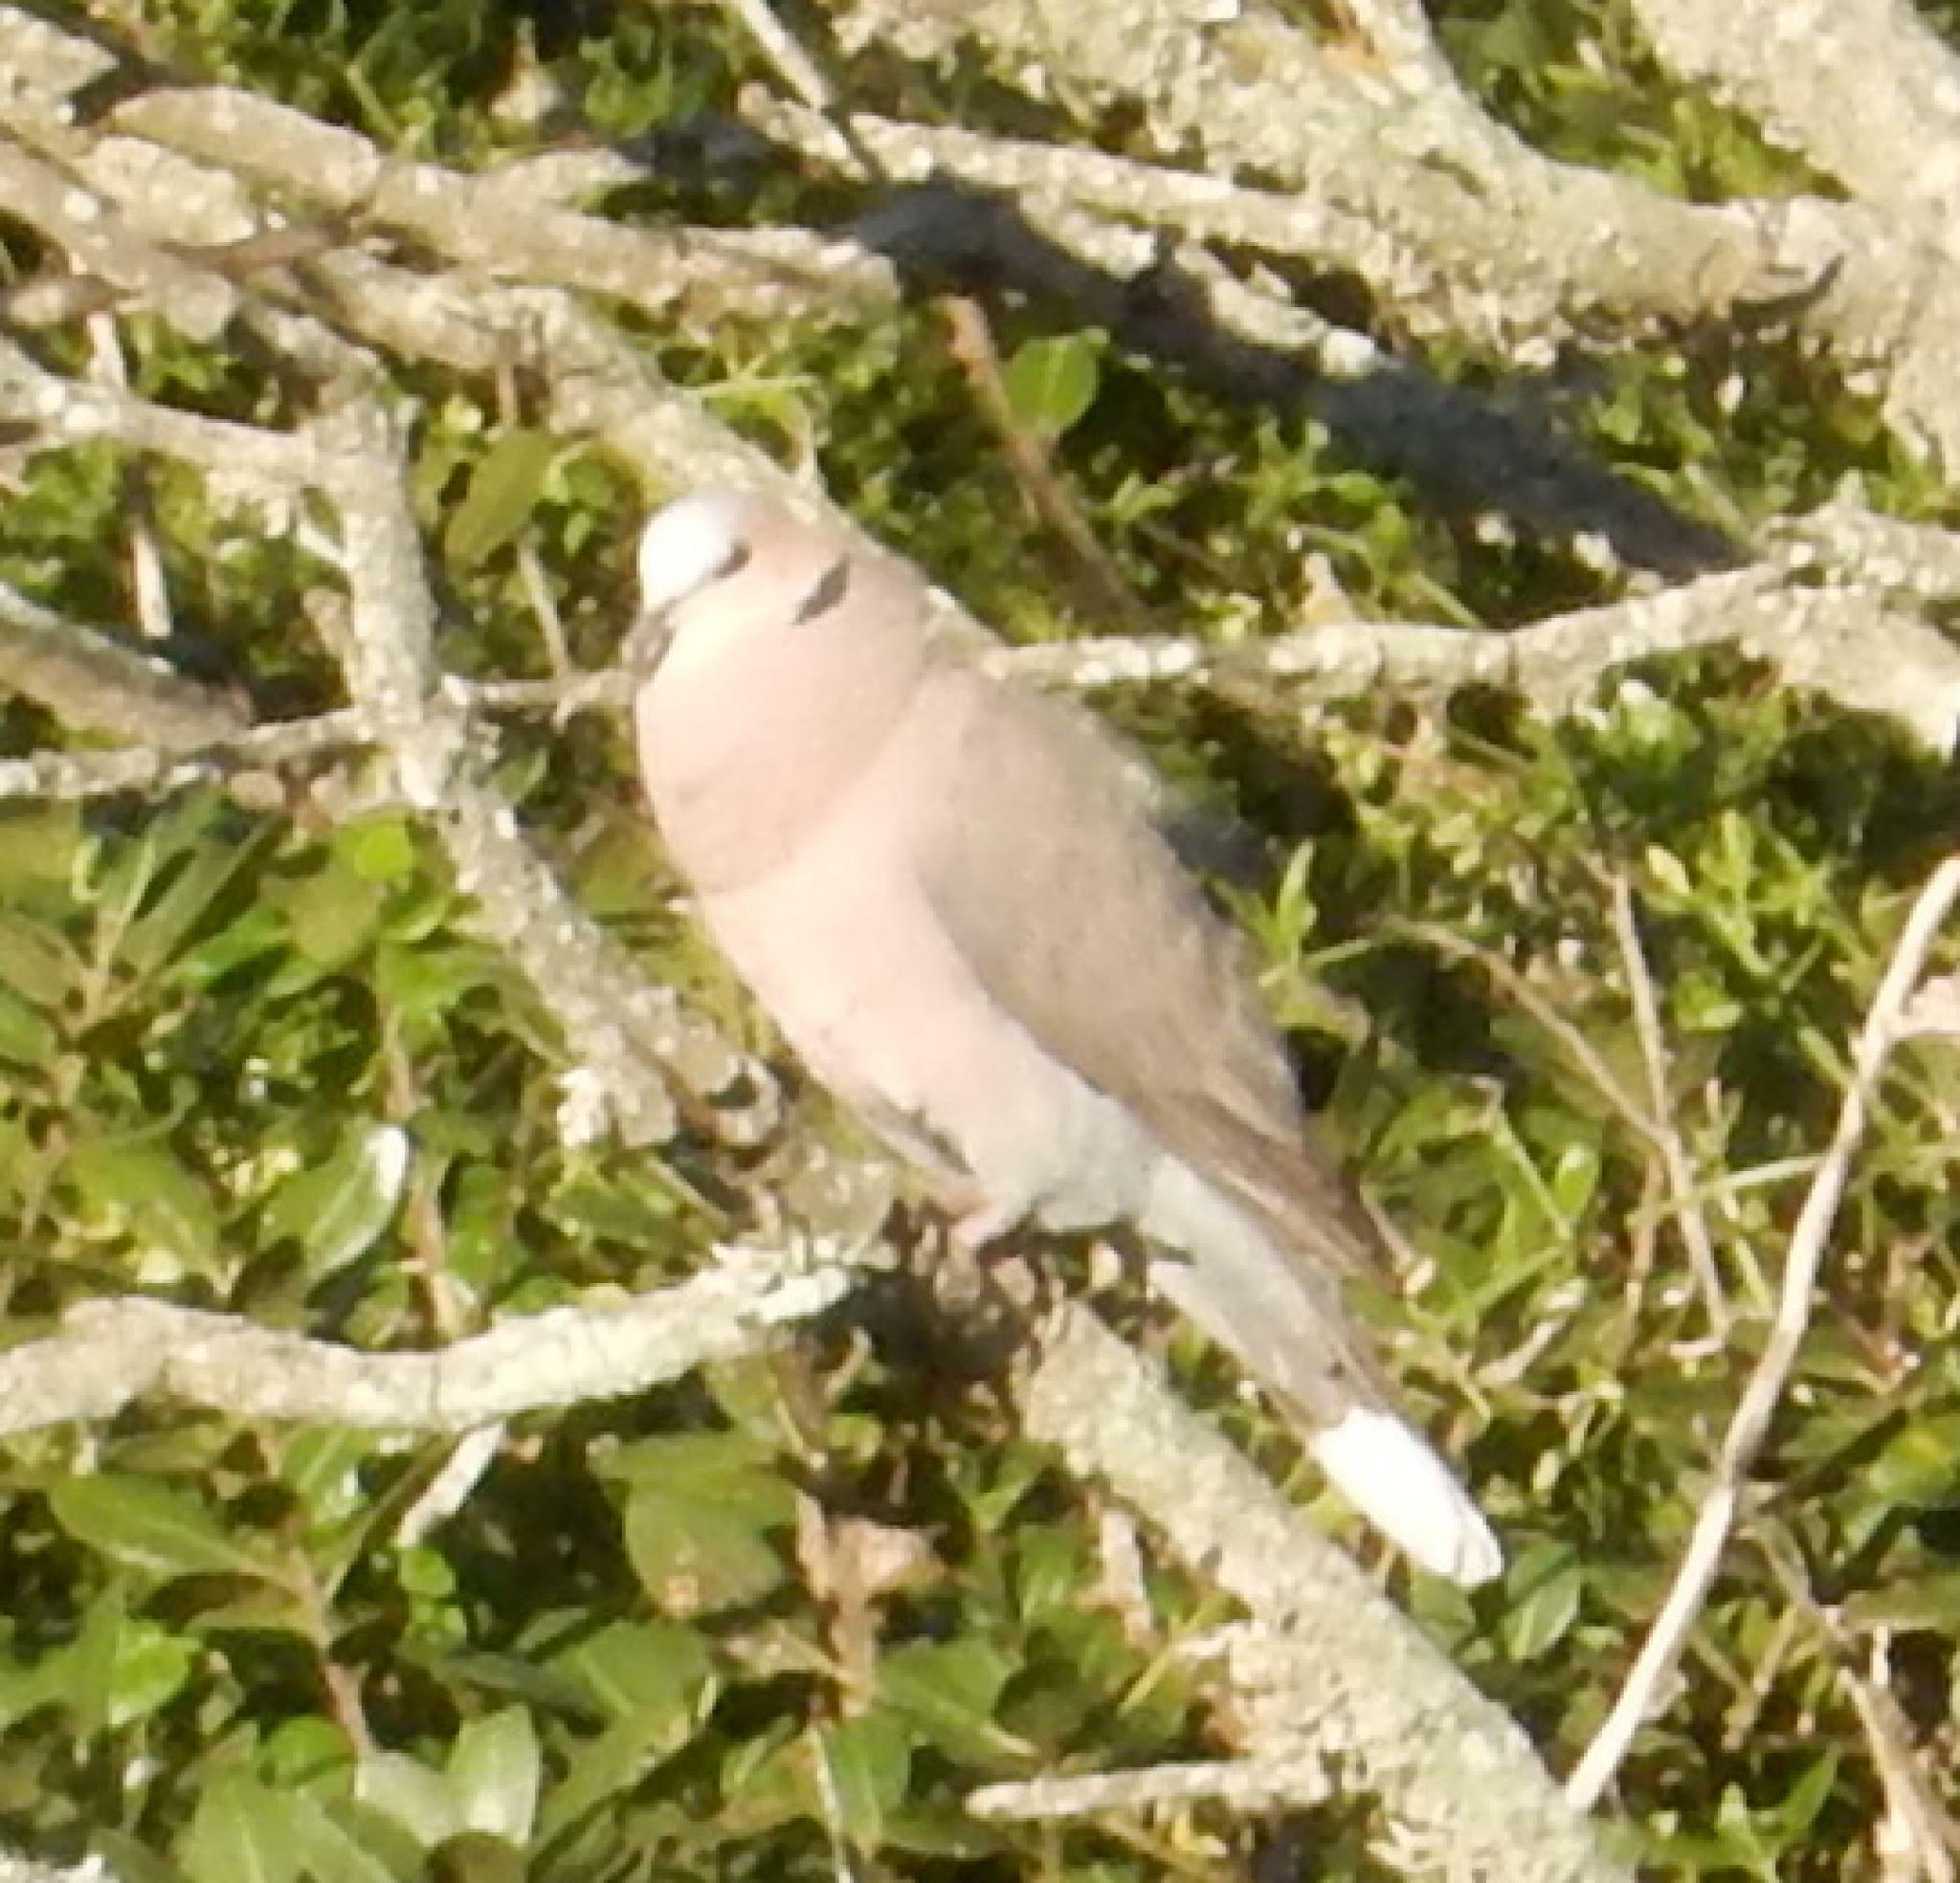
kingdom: Animalia
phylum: Chordata
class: Aves
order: Columbiformes
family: Columbidae
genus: Streptopelia
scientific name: Streptopelia semitorquata
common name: Red-eyed dove
